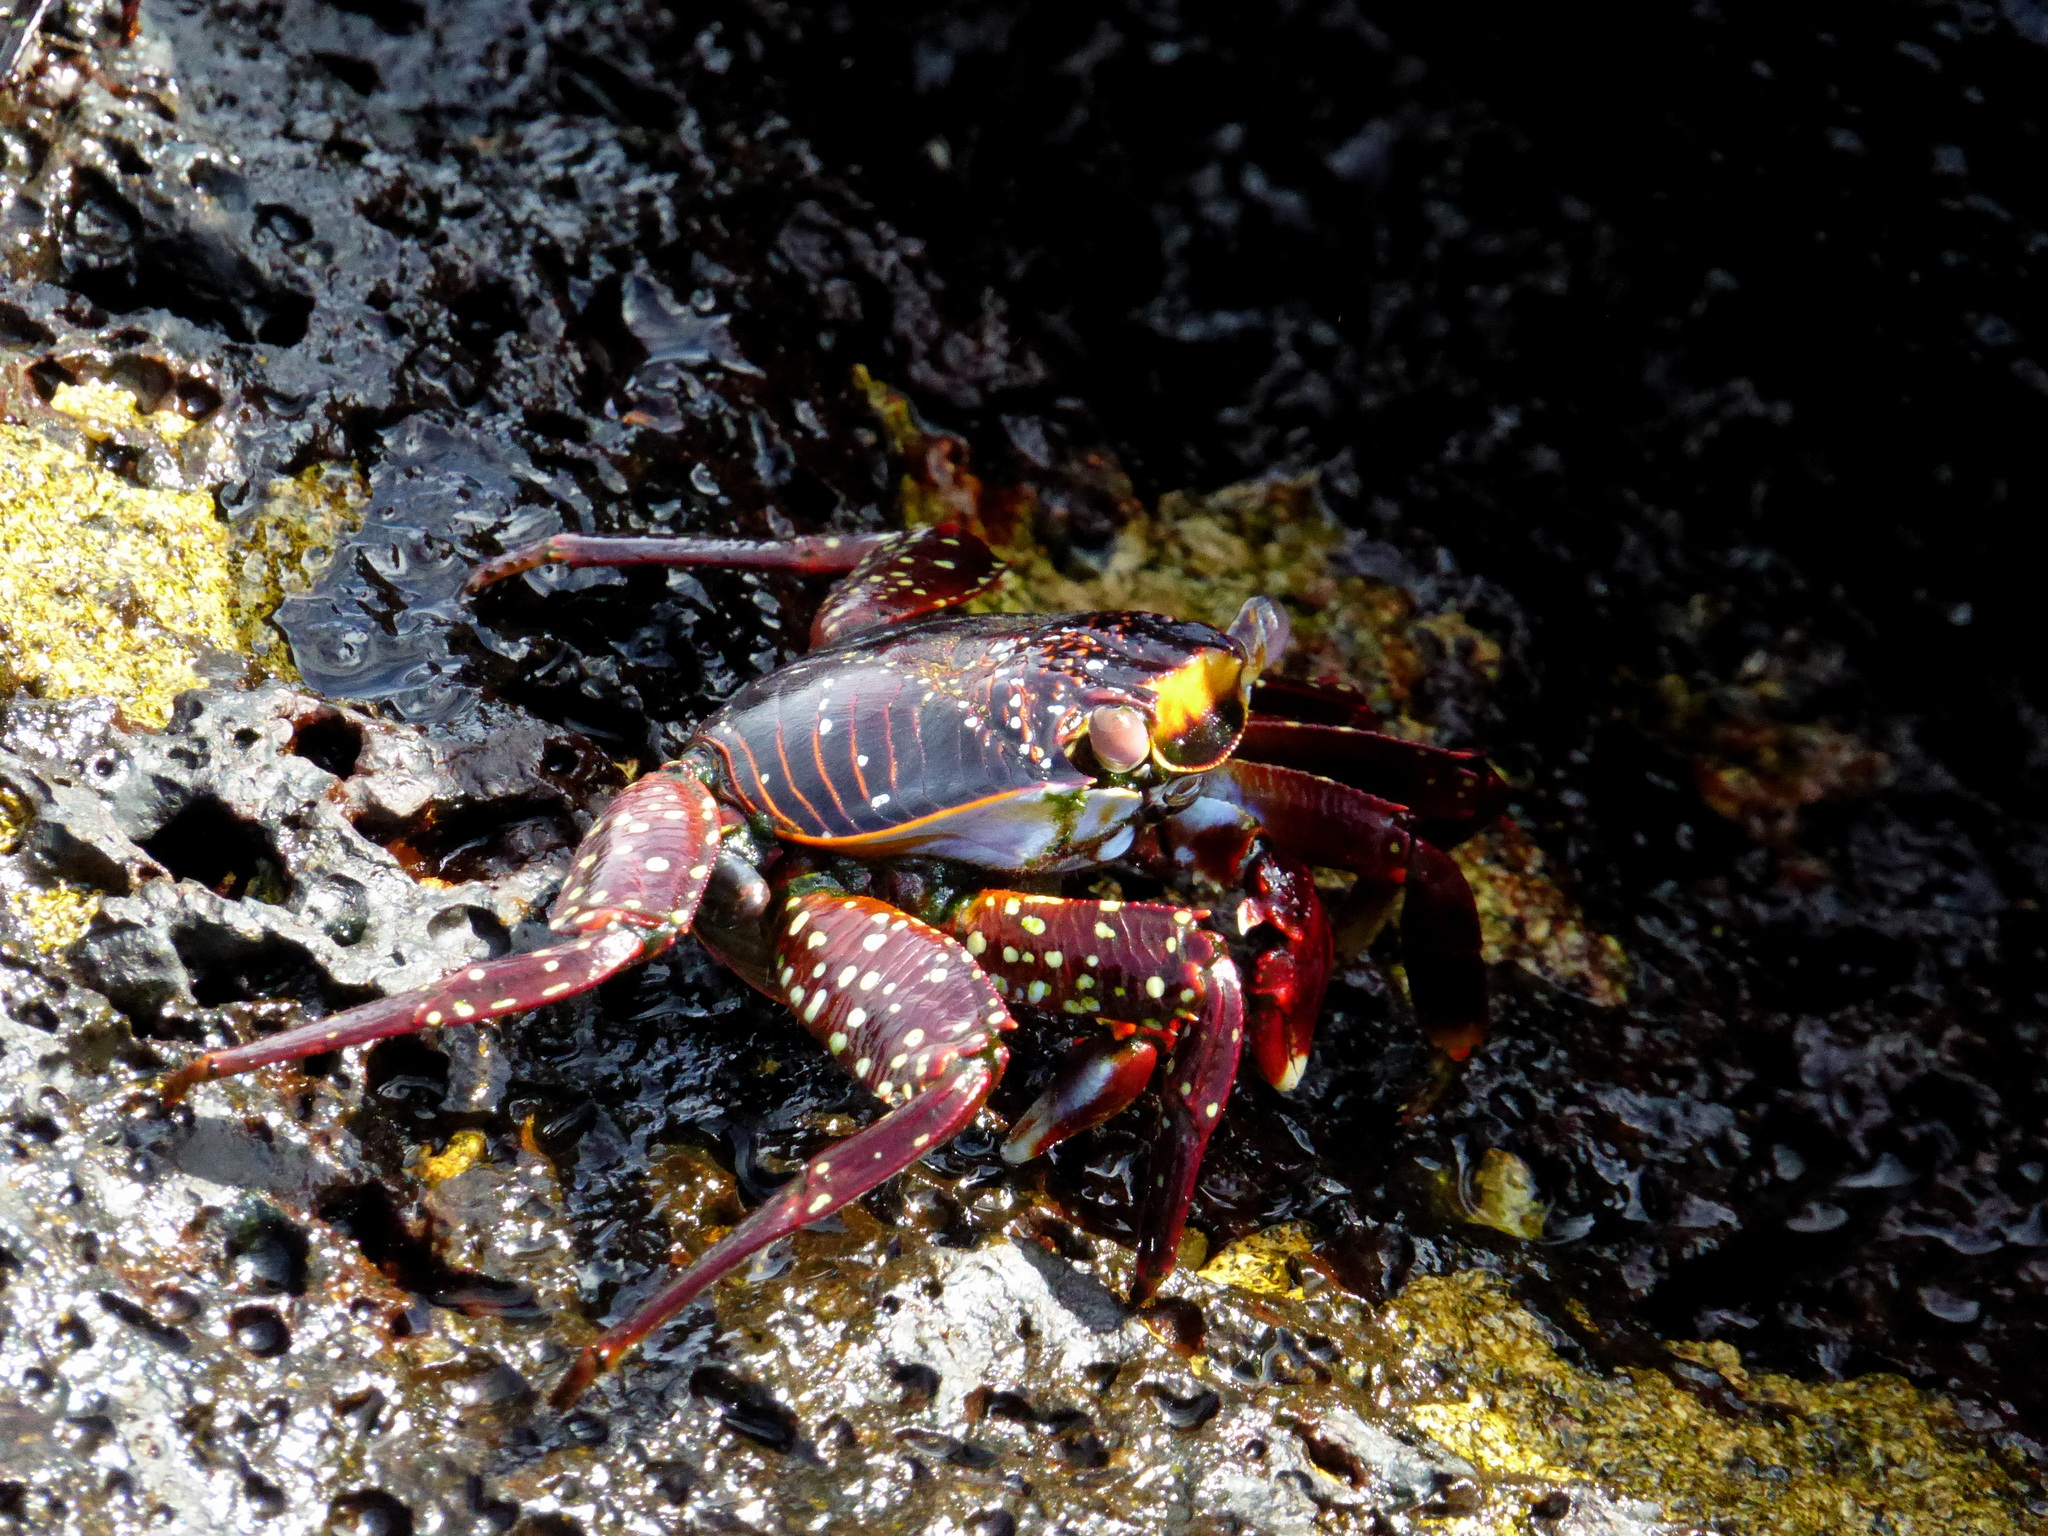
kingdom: Animalia
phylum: Arthropoda
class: Malacostraca
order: Decapoda
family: Grapsidae
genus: Grapsus
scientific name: Grapsus grapsus
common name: Sally lightfoot
